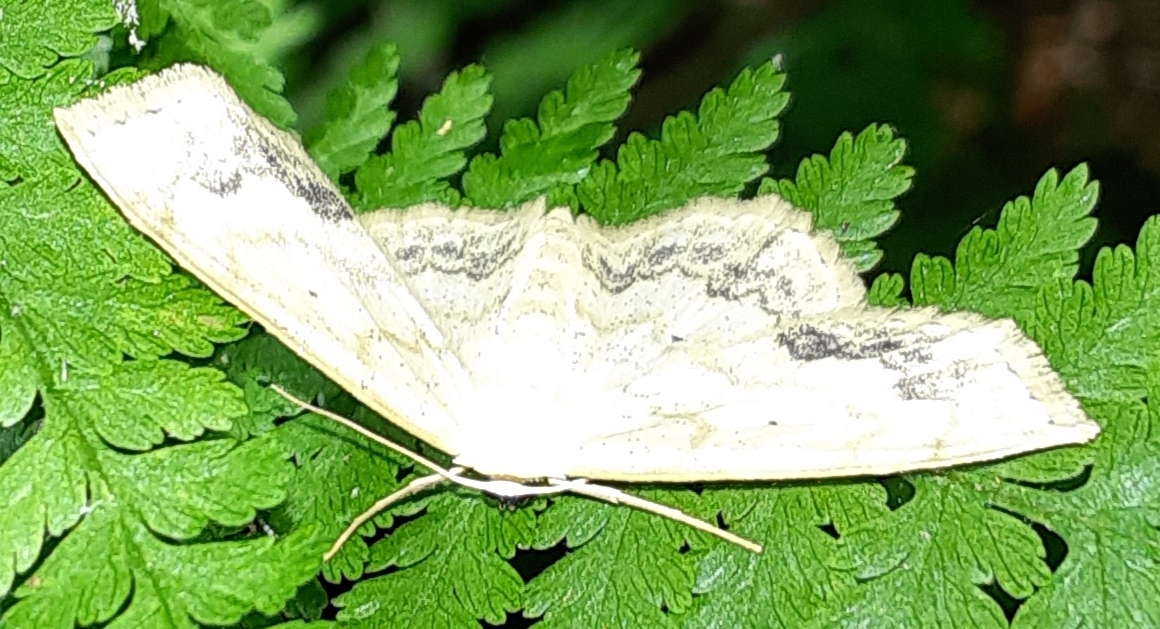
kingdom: Animalia
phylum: Arthropoda
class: Insecta
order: Lepidoptera
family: Geometridae
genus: Scopula
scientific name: Scopula limboundata
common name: Large lace border
